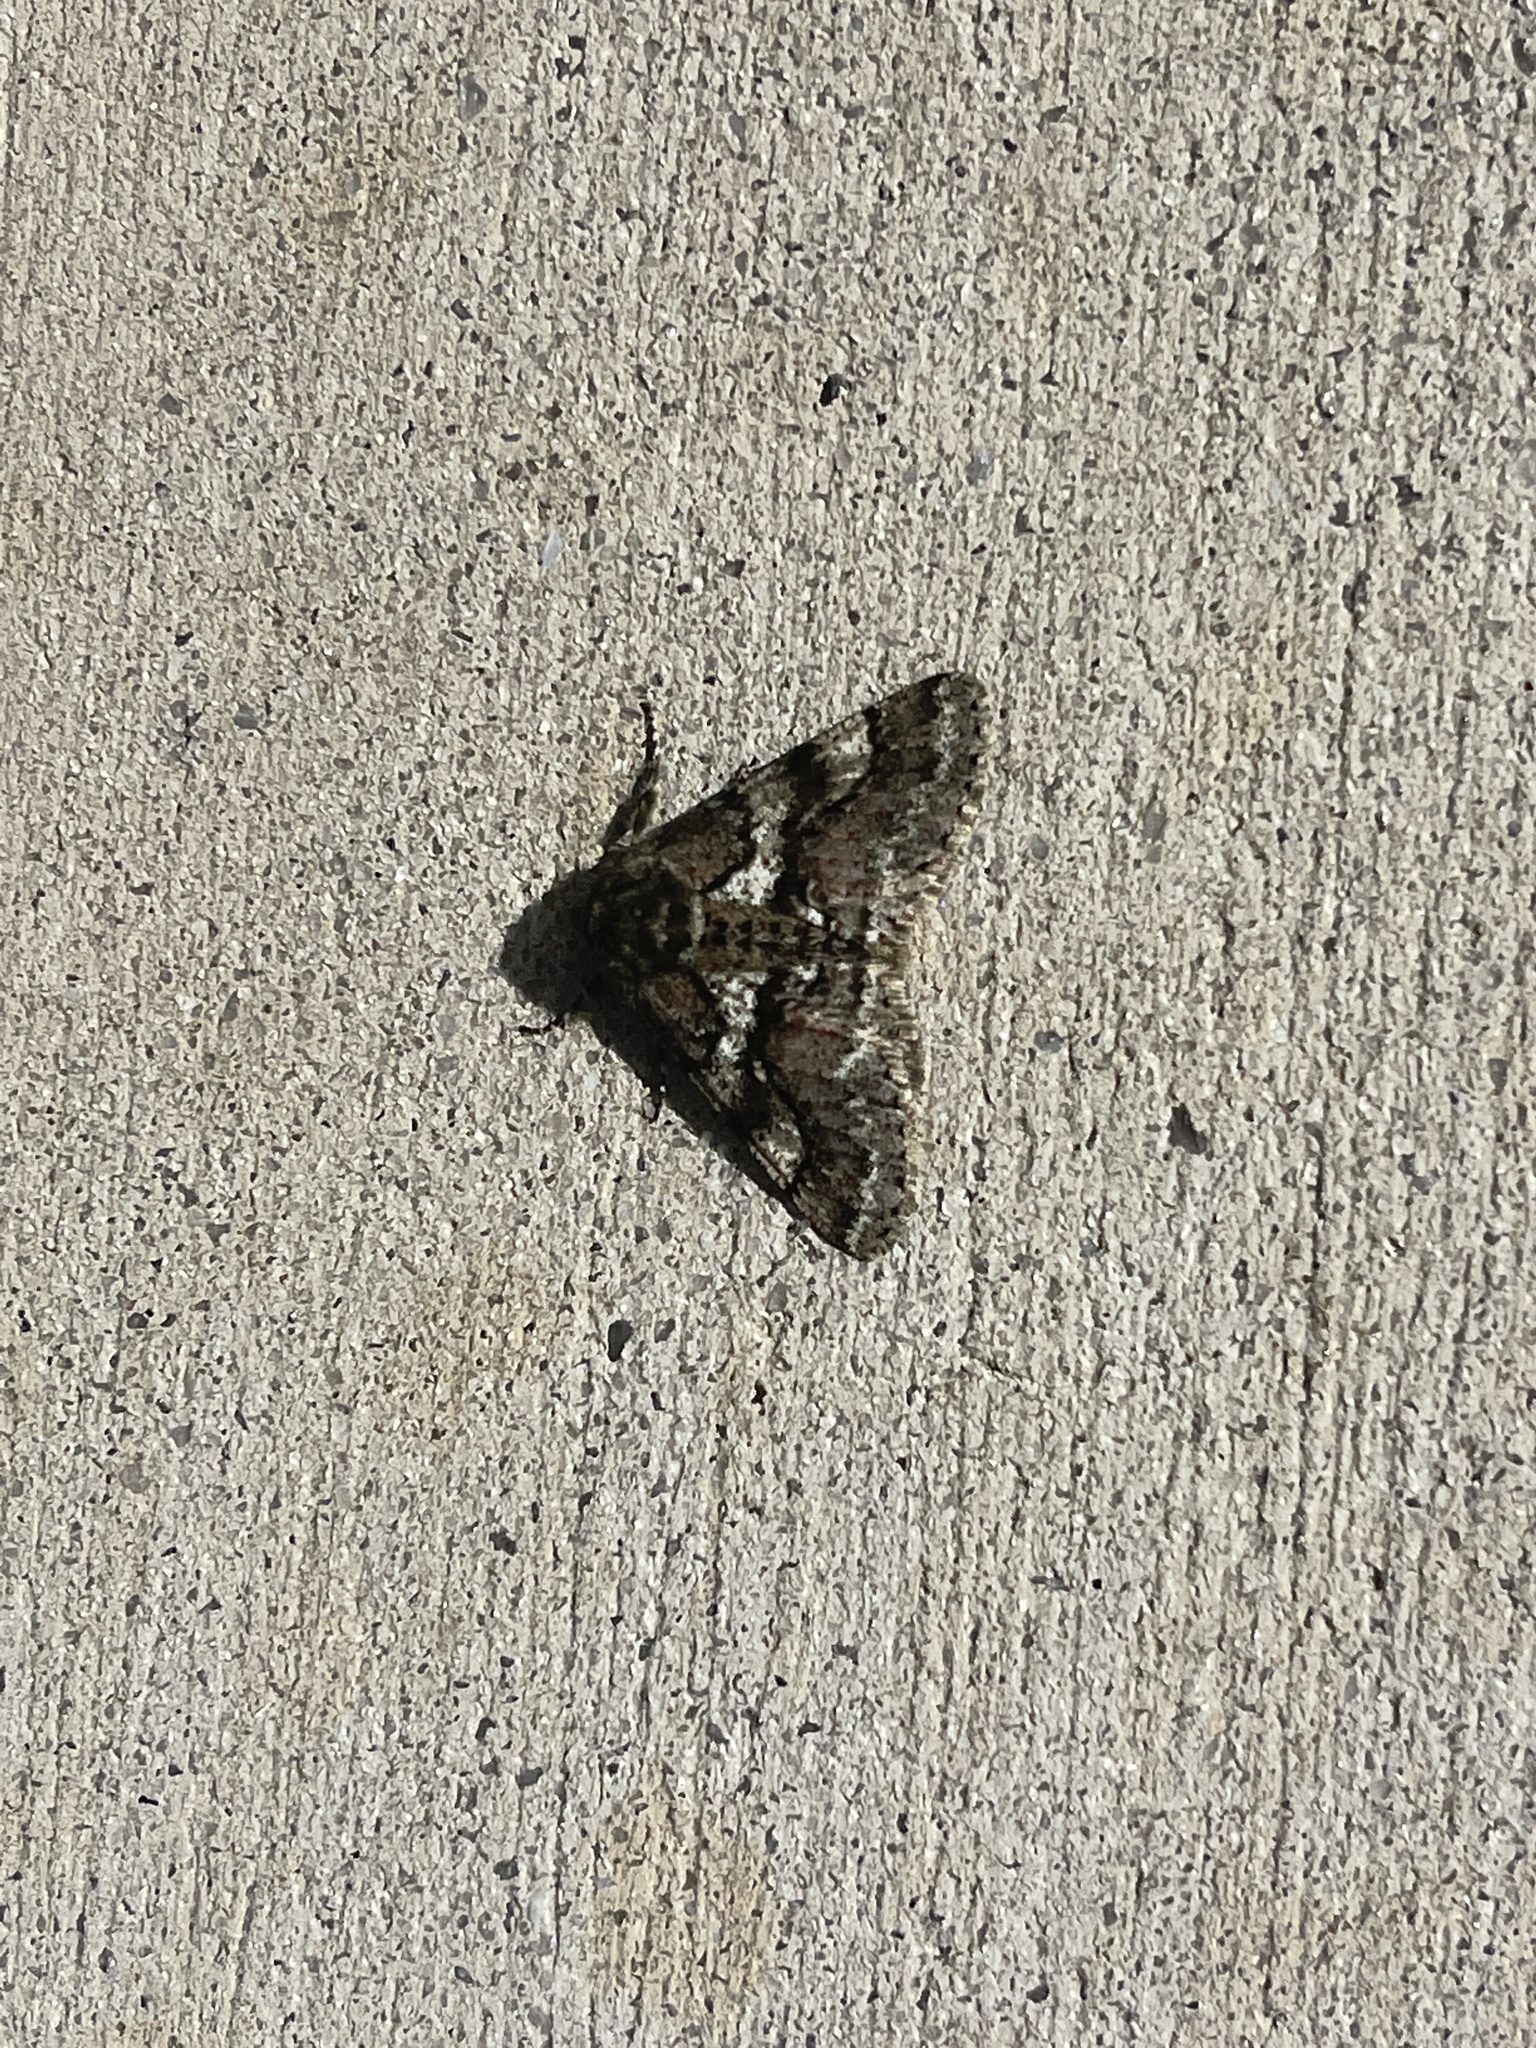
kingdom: Animalia
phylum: Arthropoda
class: Insecta
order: Lepidoptera
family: Geometridae
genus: Lycia
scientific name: Lycia ypsilon
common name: Wooly gray
